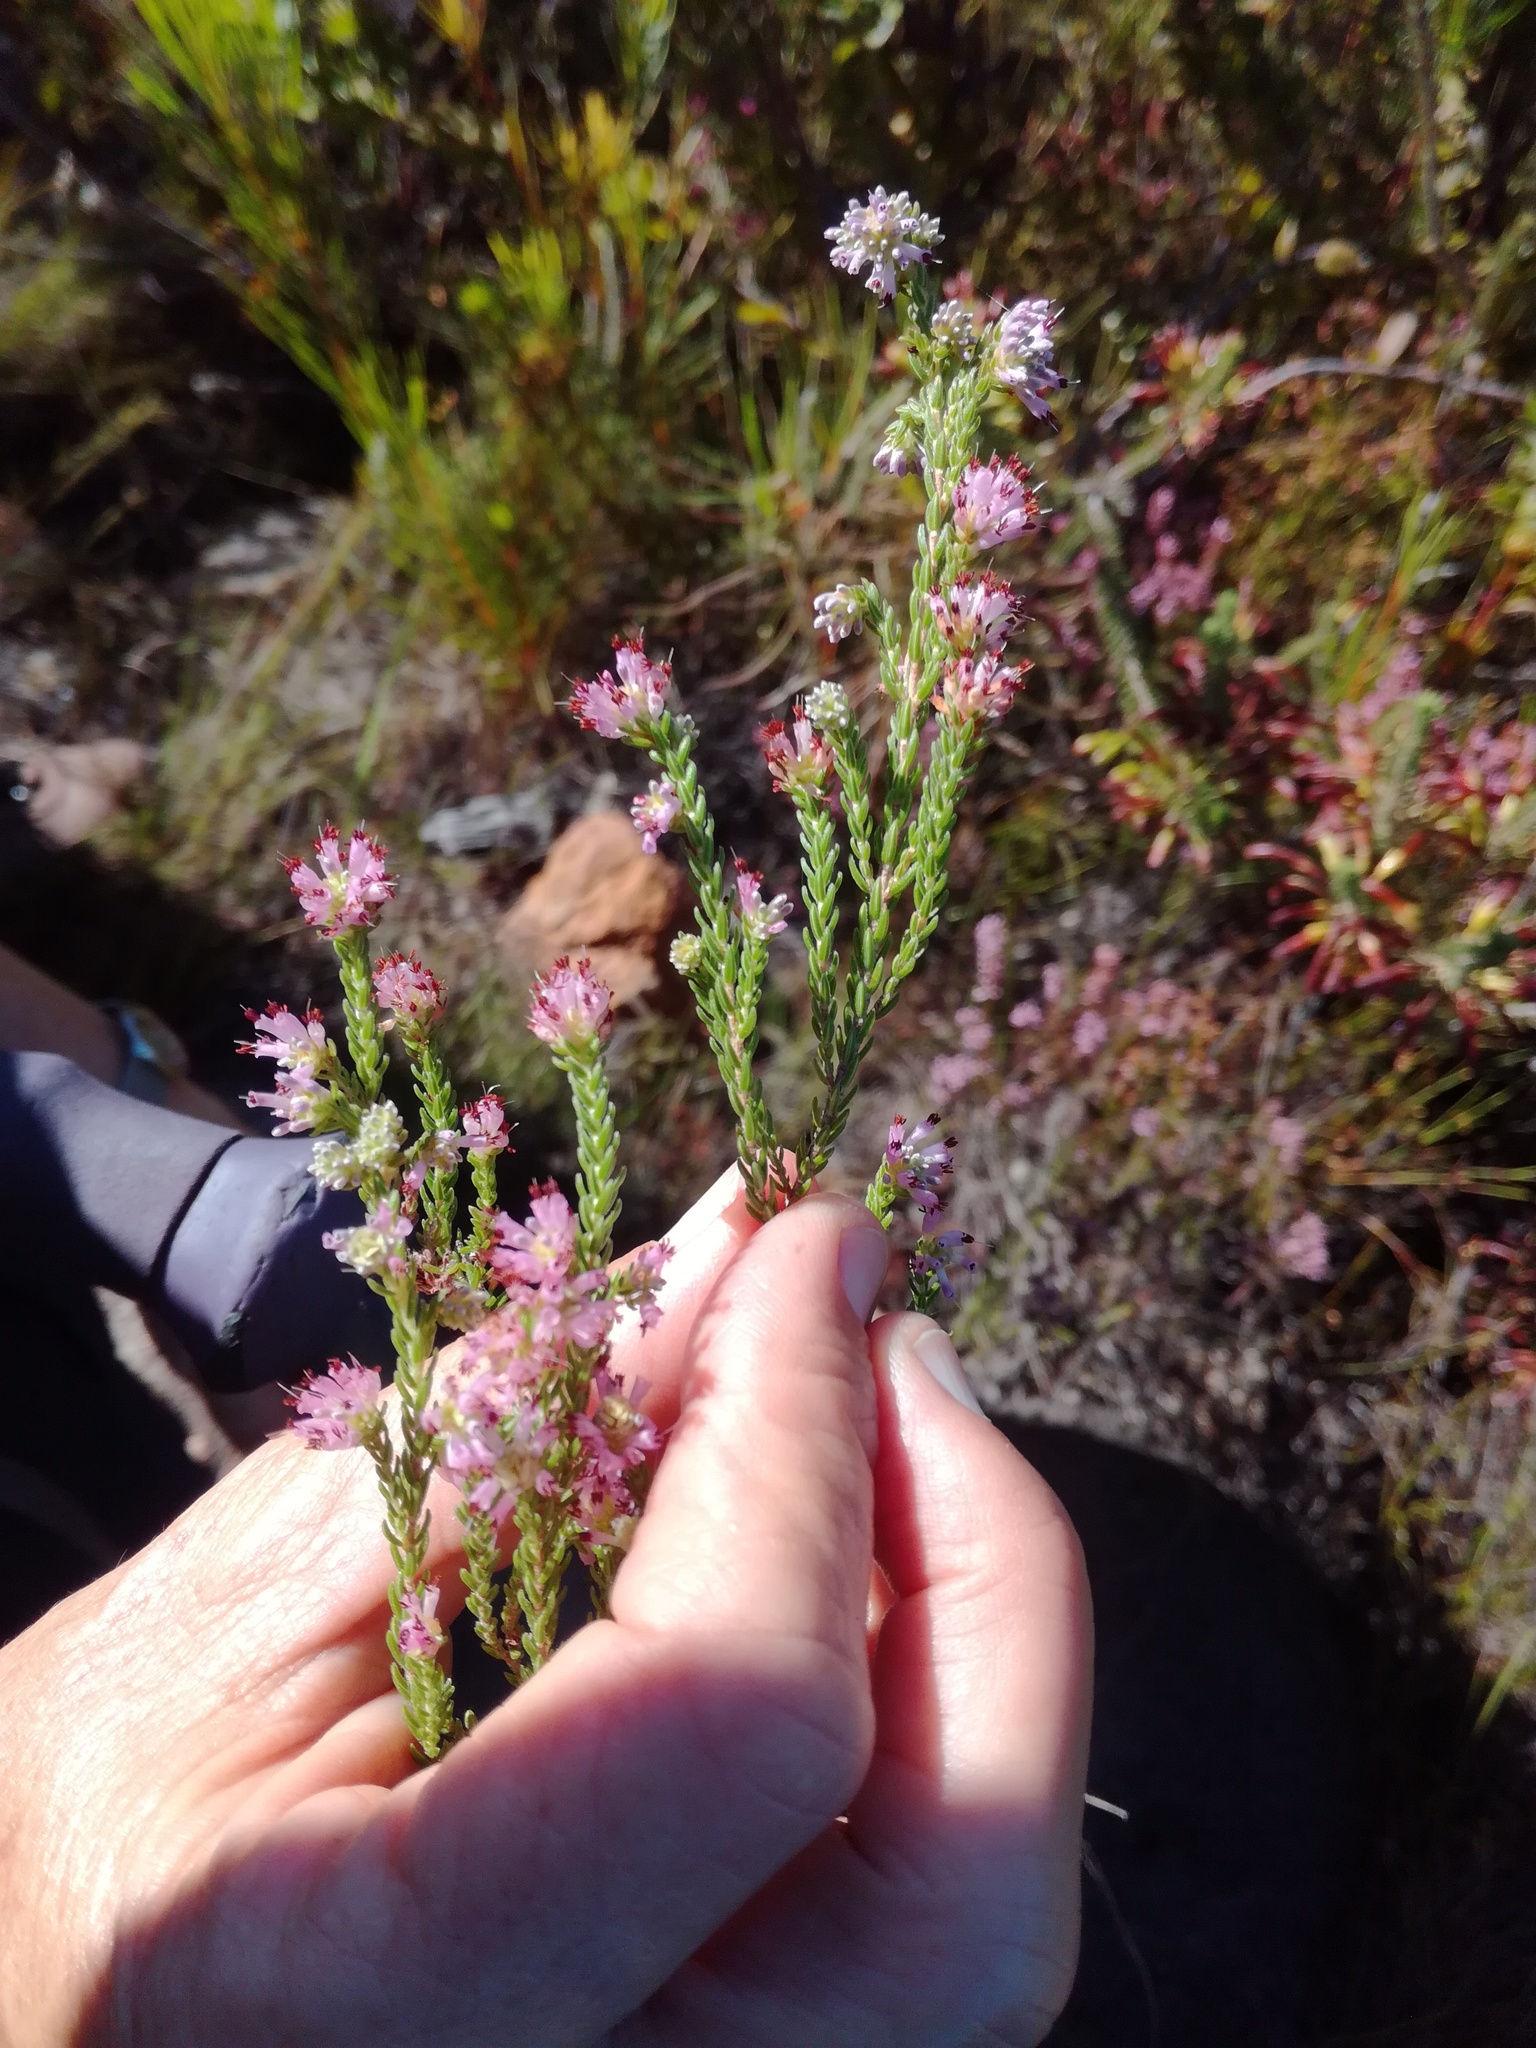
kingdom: Plantae
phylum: Tracheophyta
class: Magnoliopsida
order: Ericales
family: Ericaceae
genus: Erica
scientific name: Erica labialis
